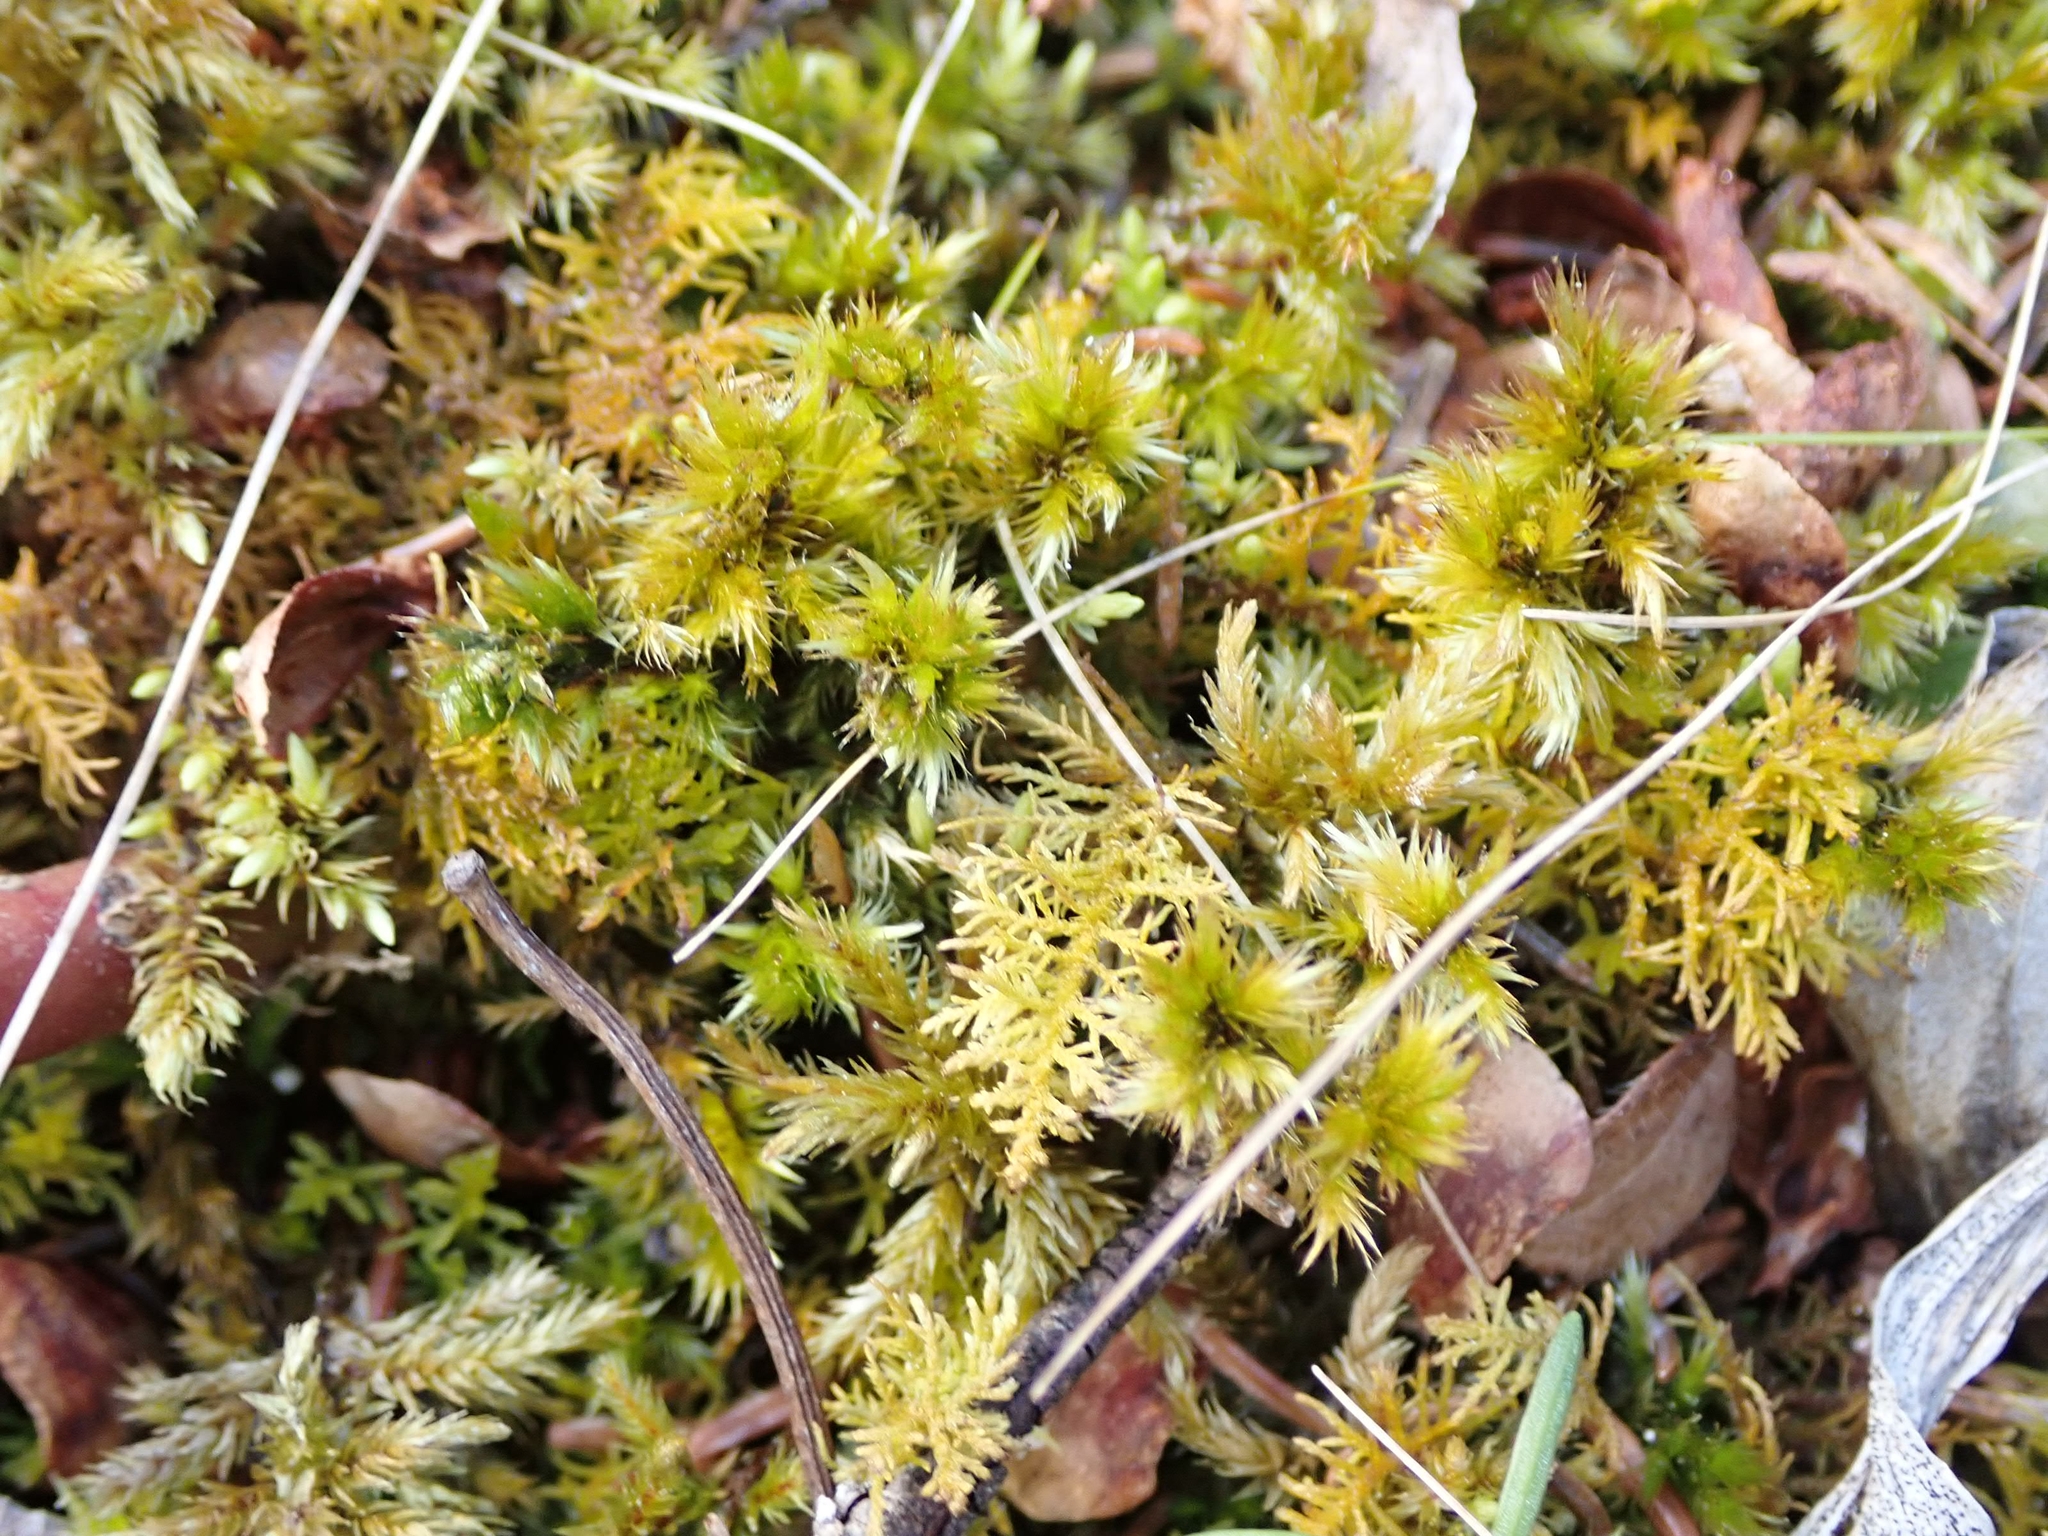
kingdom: Plantae
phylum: Bryophyta
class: Bryopsida
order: Hypnales
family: Amblystegiaceae
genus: Tomentypnum
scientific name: Tomentypnum nitens
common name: Golden fuzzy fen moss
